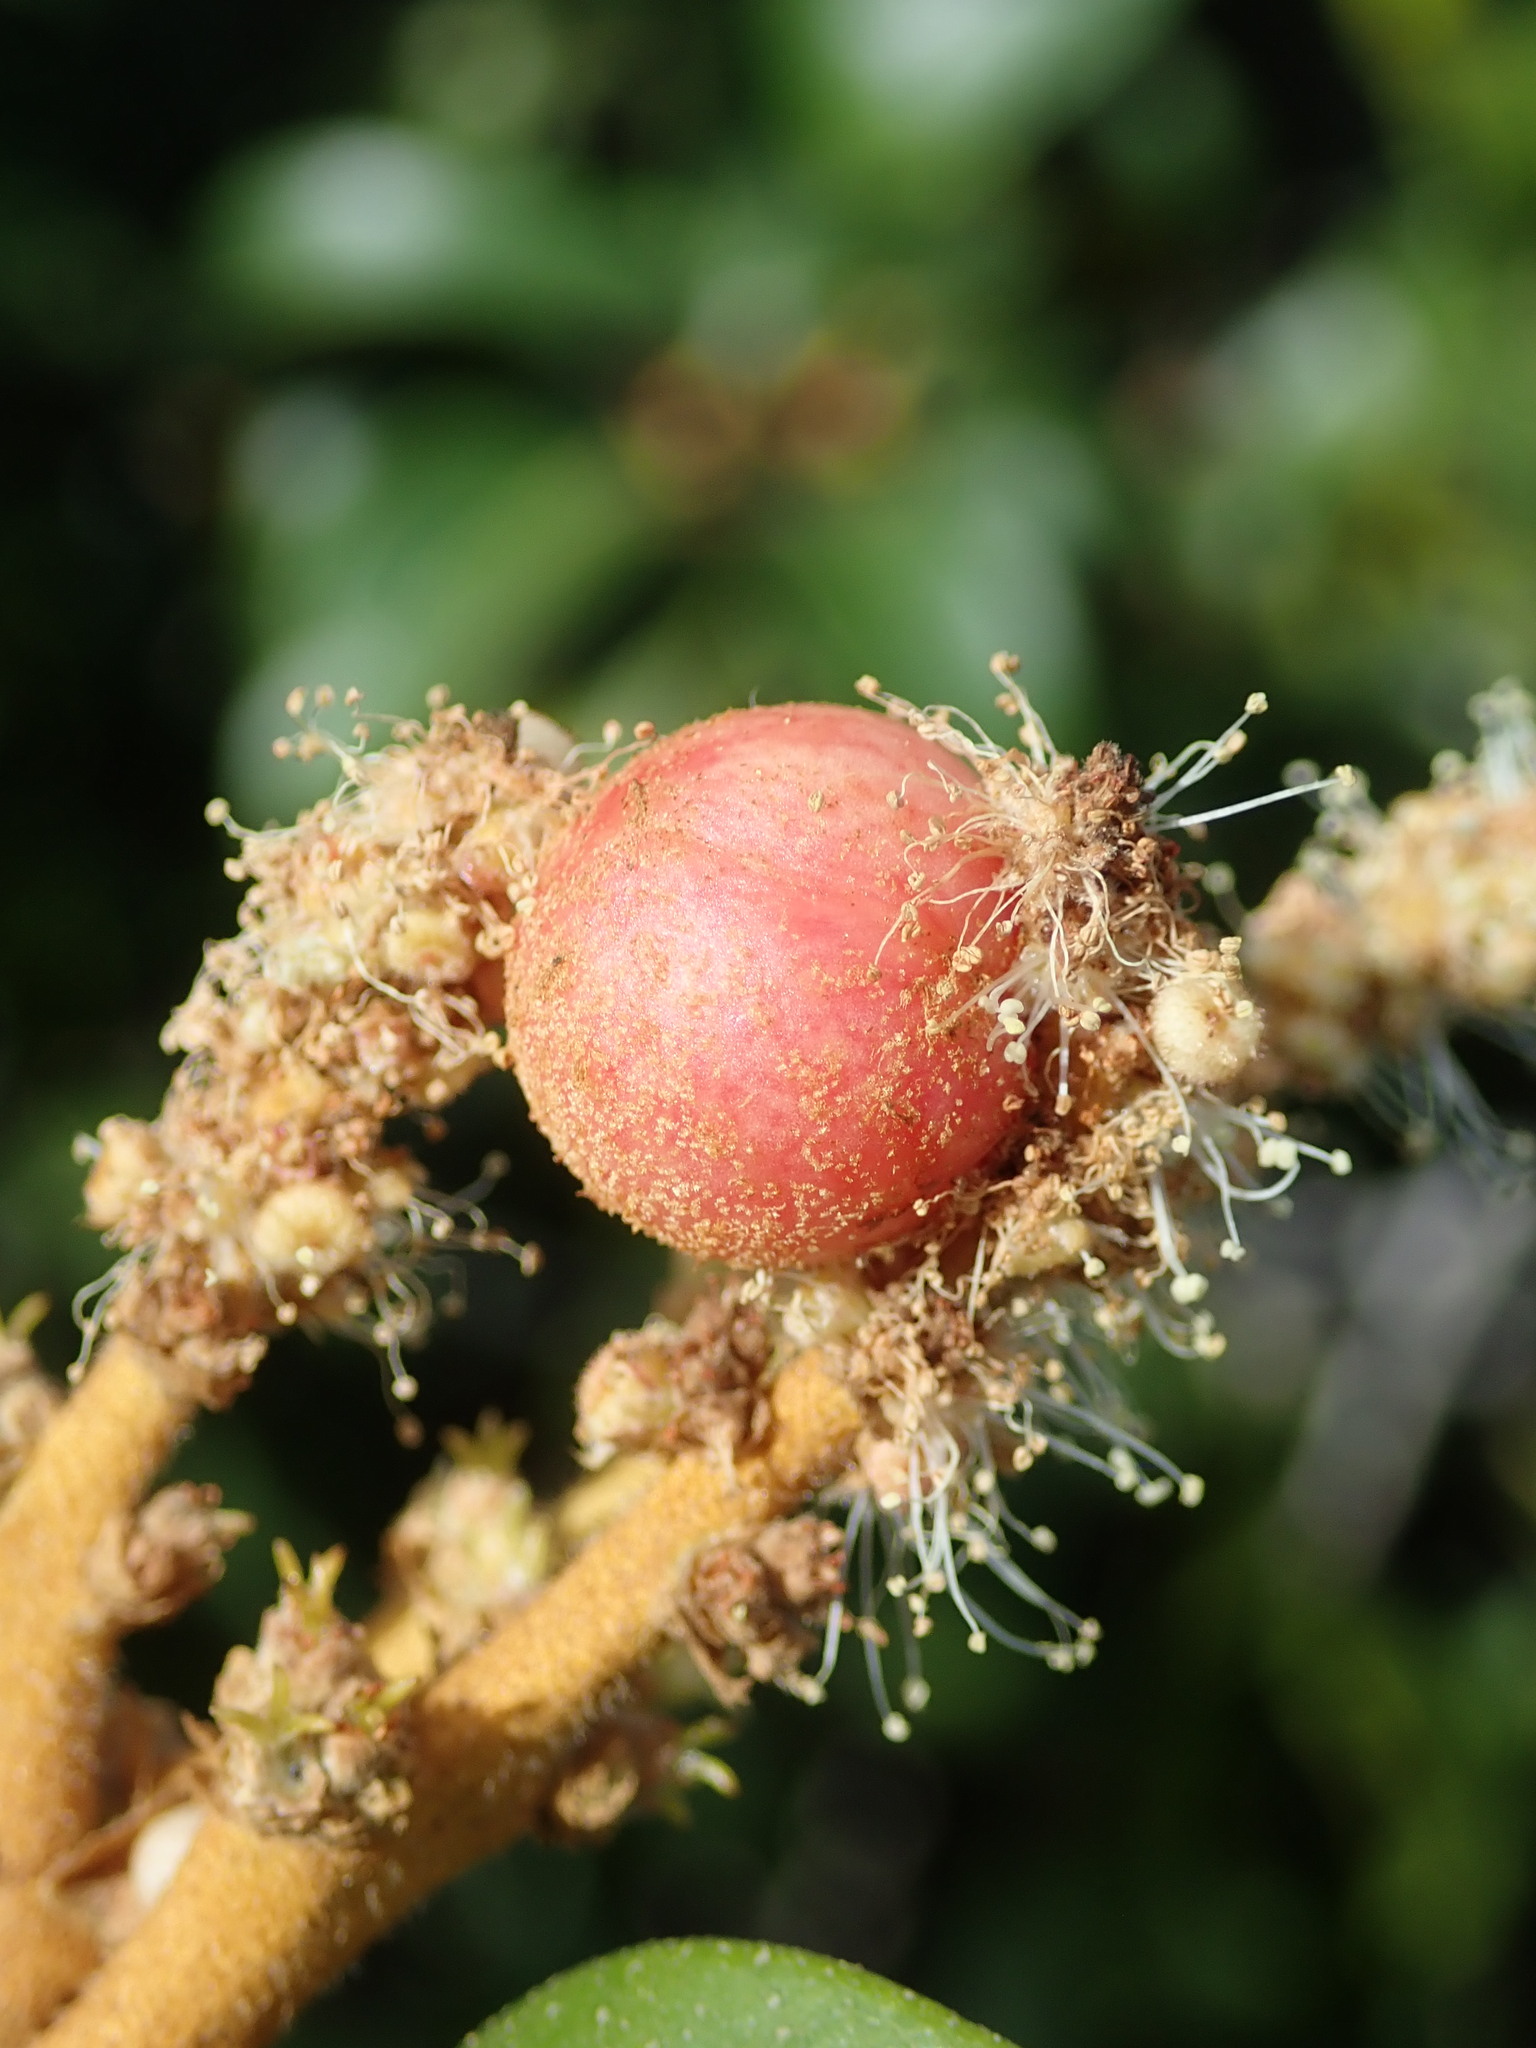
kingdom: Animalia
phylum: Arthropoda
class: Insecta
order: Hymenoptera
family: Cynipidae
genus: Synergus
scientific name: Synergus castanopsidis
